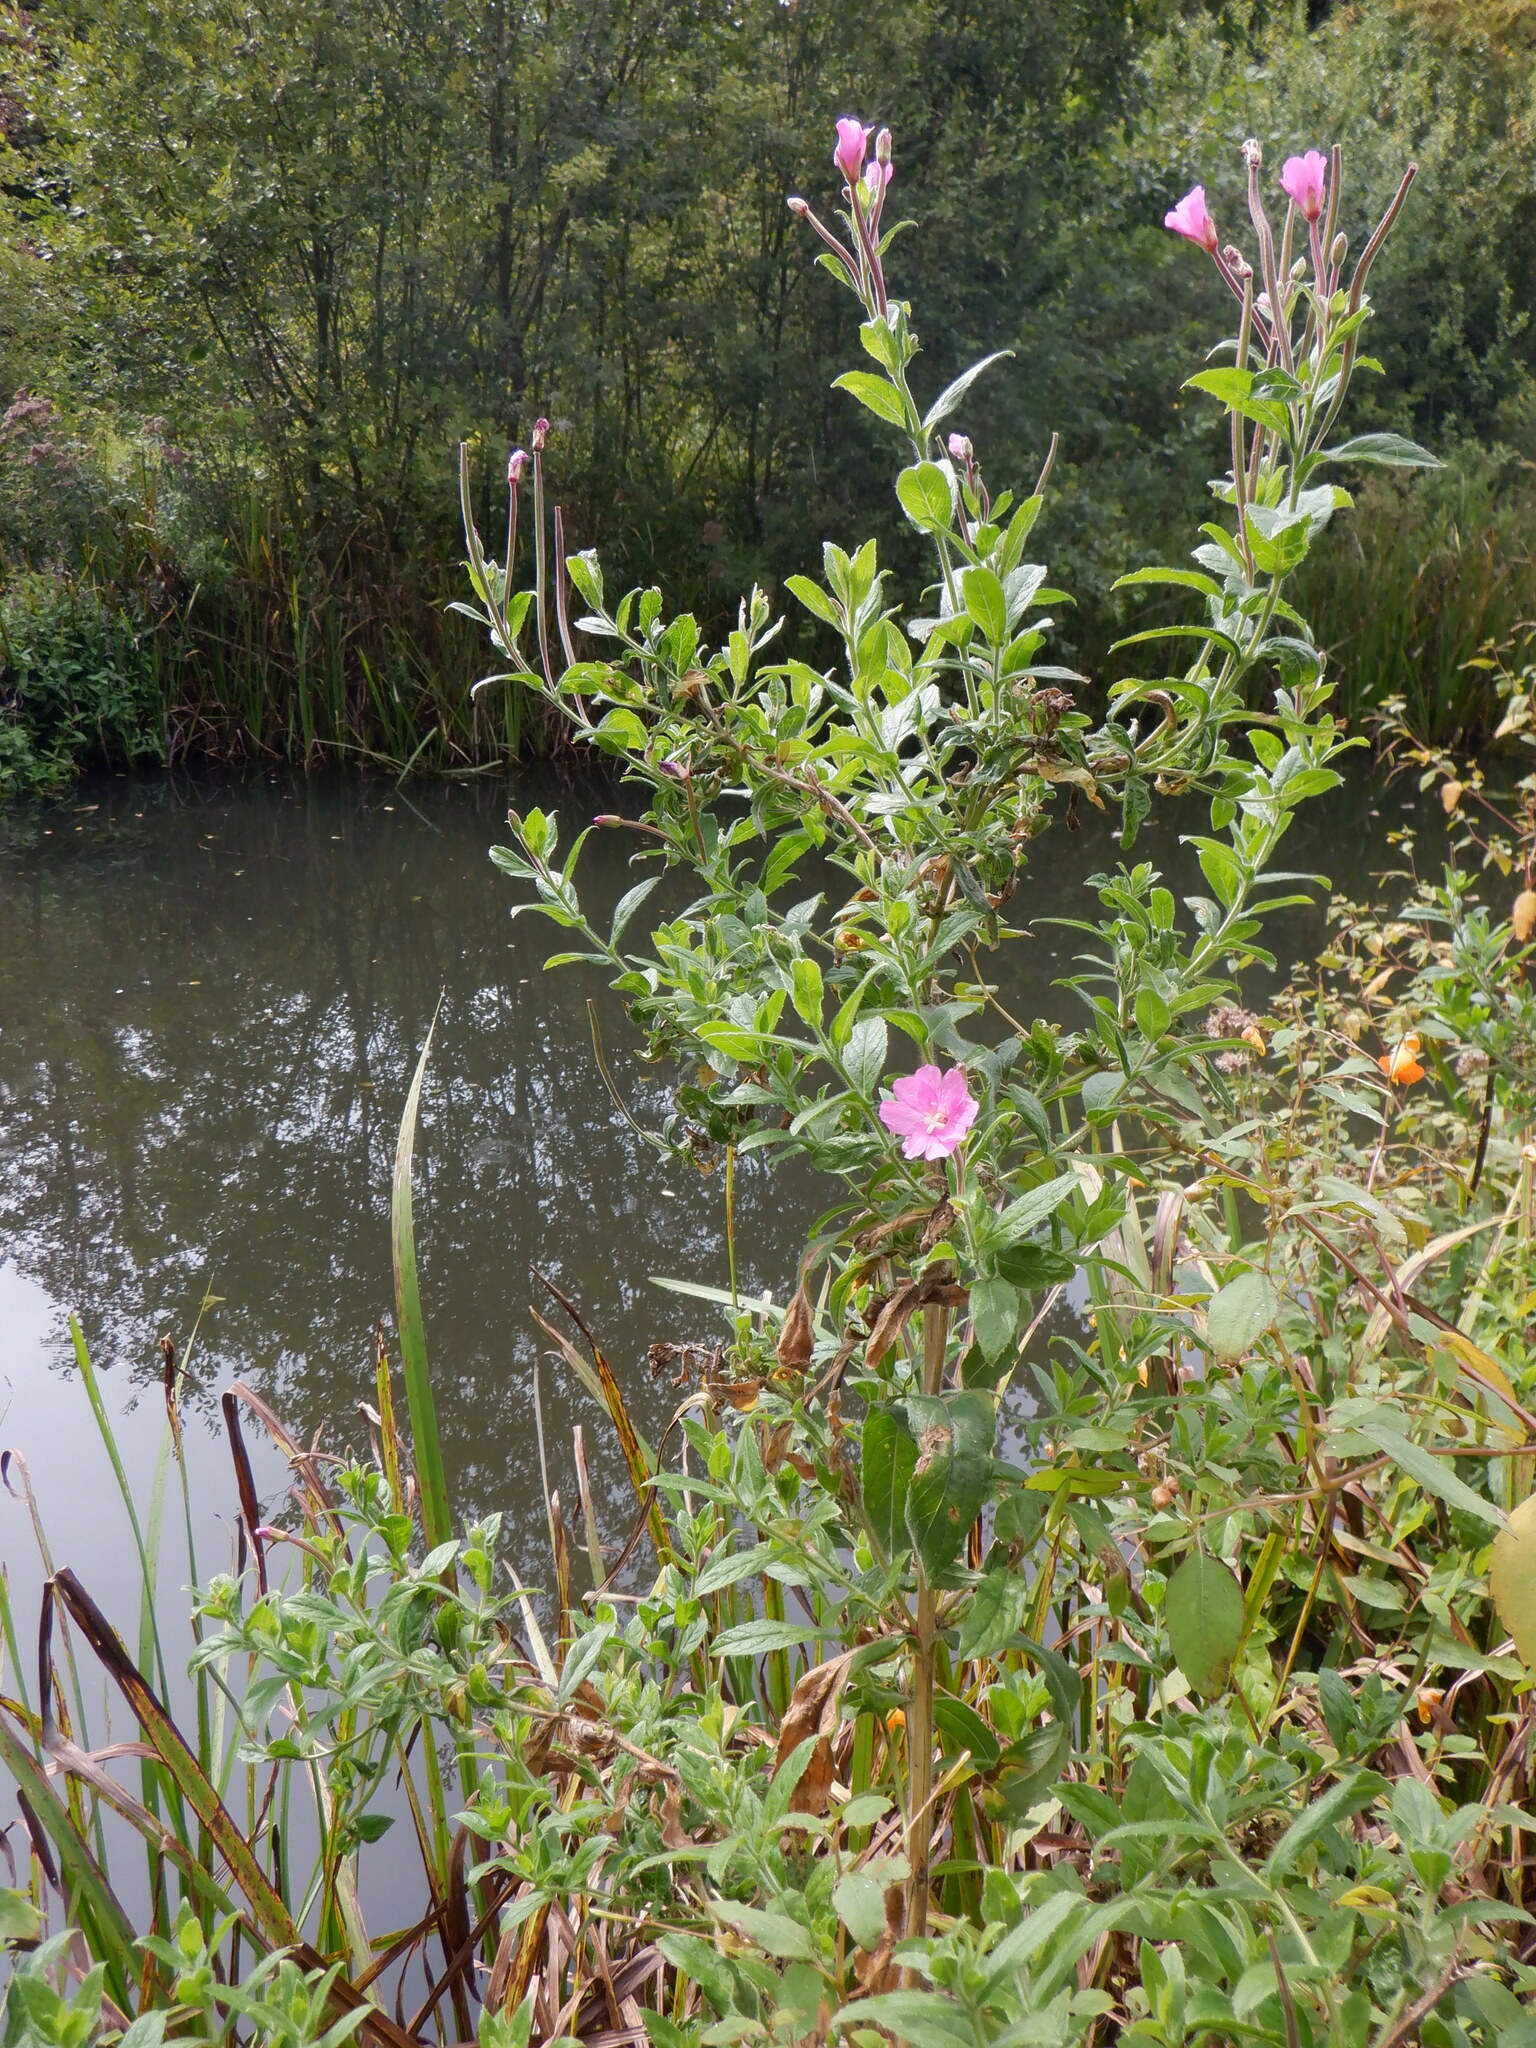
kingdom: Plantae
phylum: Tracheophyta
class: Magnoliopsida
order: Myrtales
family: Onagraceae
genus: Epilobium
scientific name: Epilobium hirsutum
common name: Great willowherb
